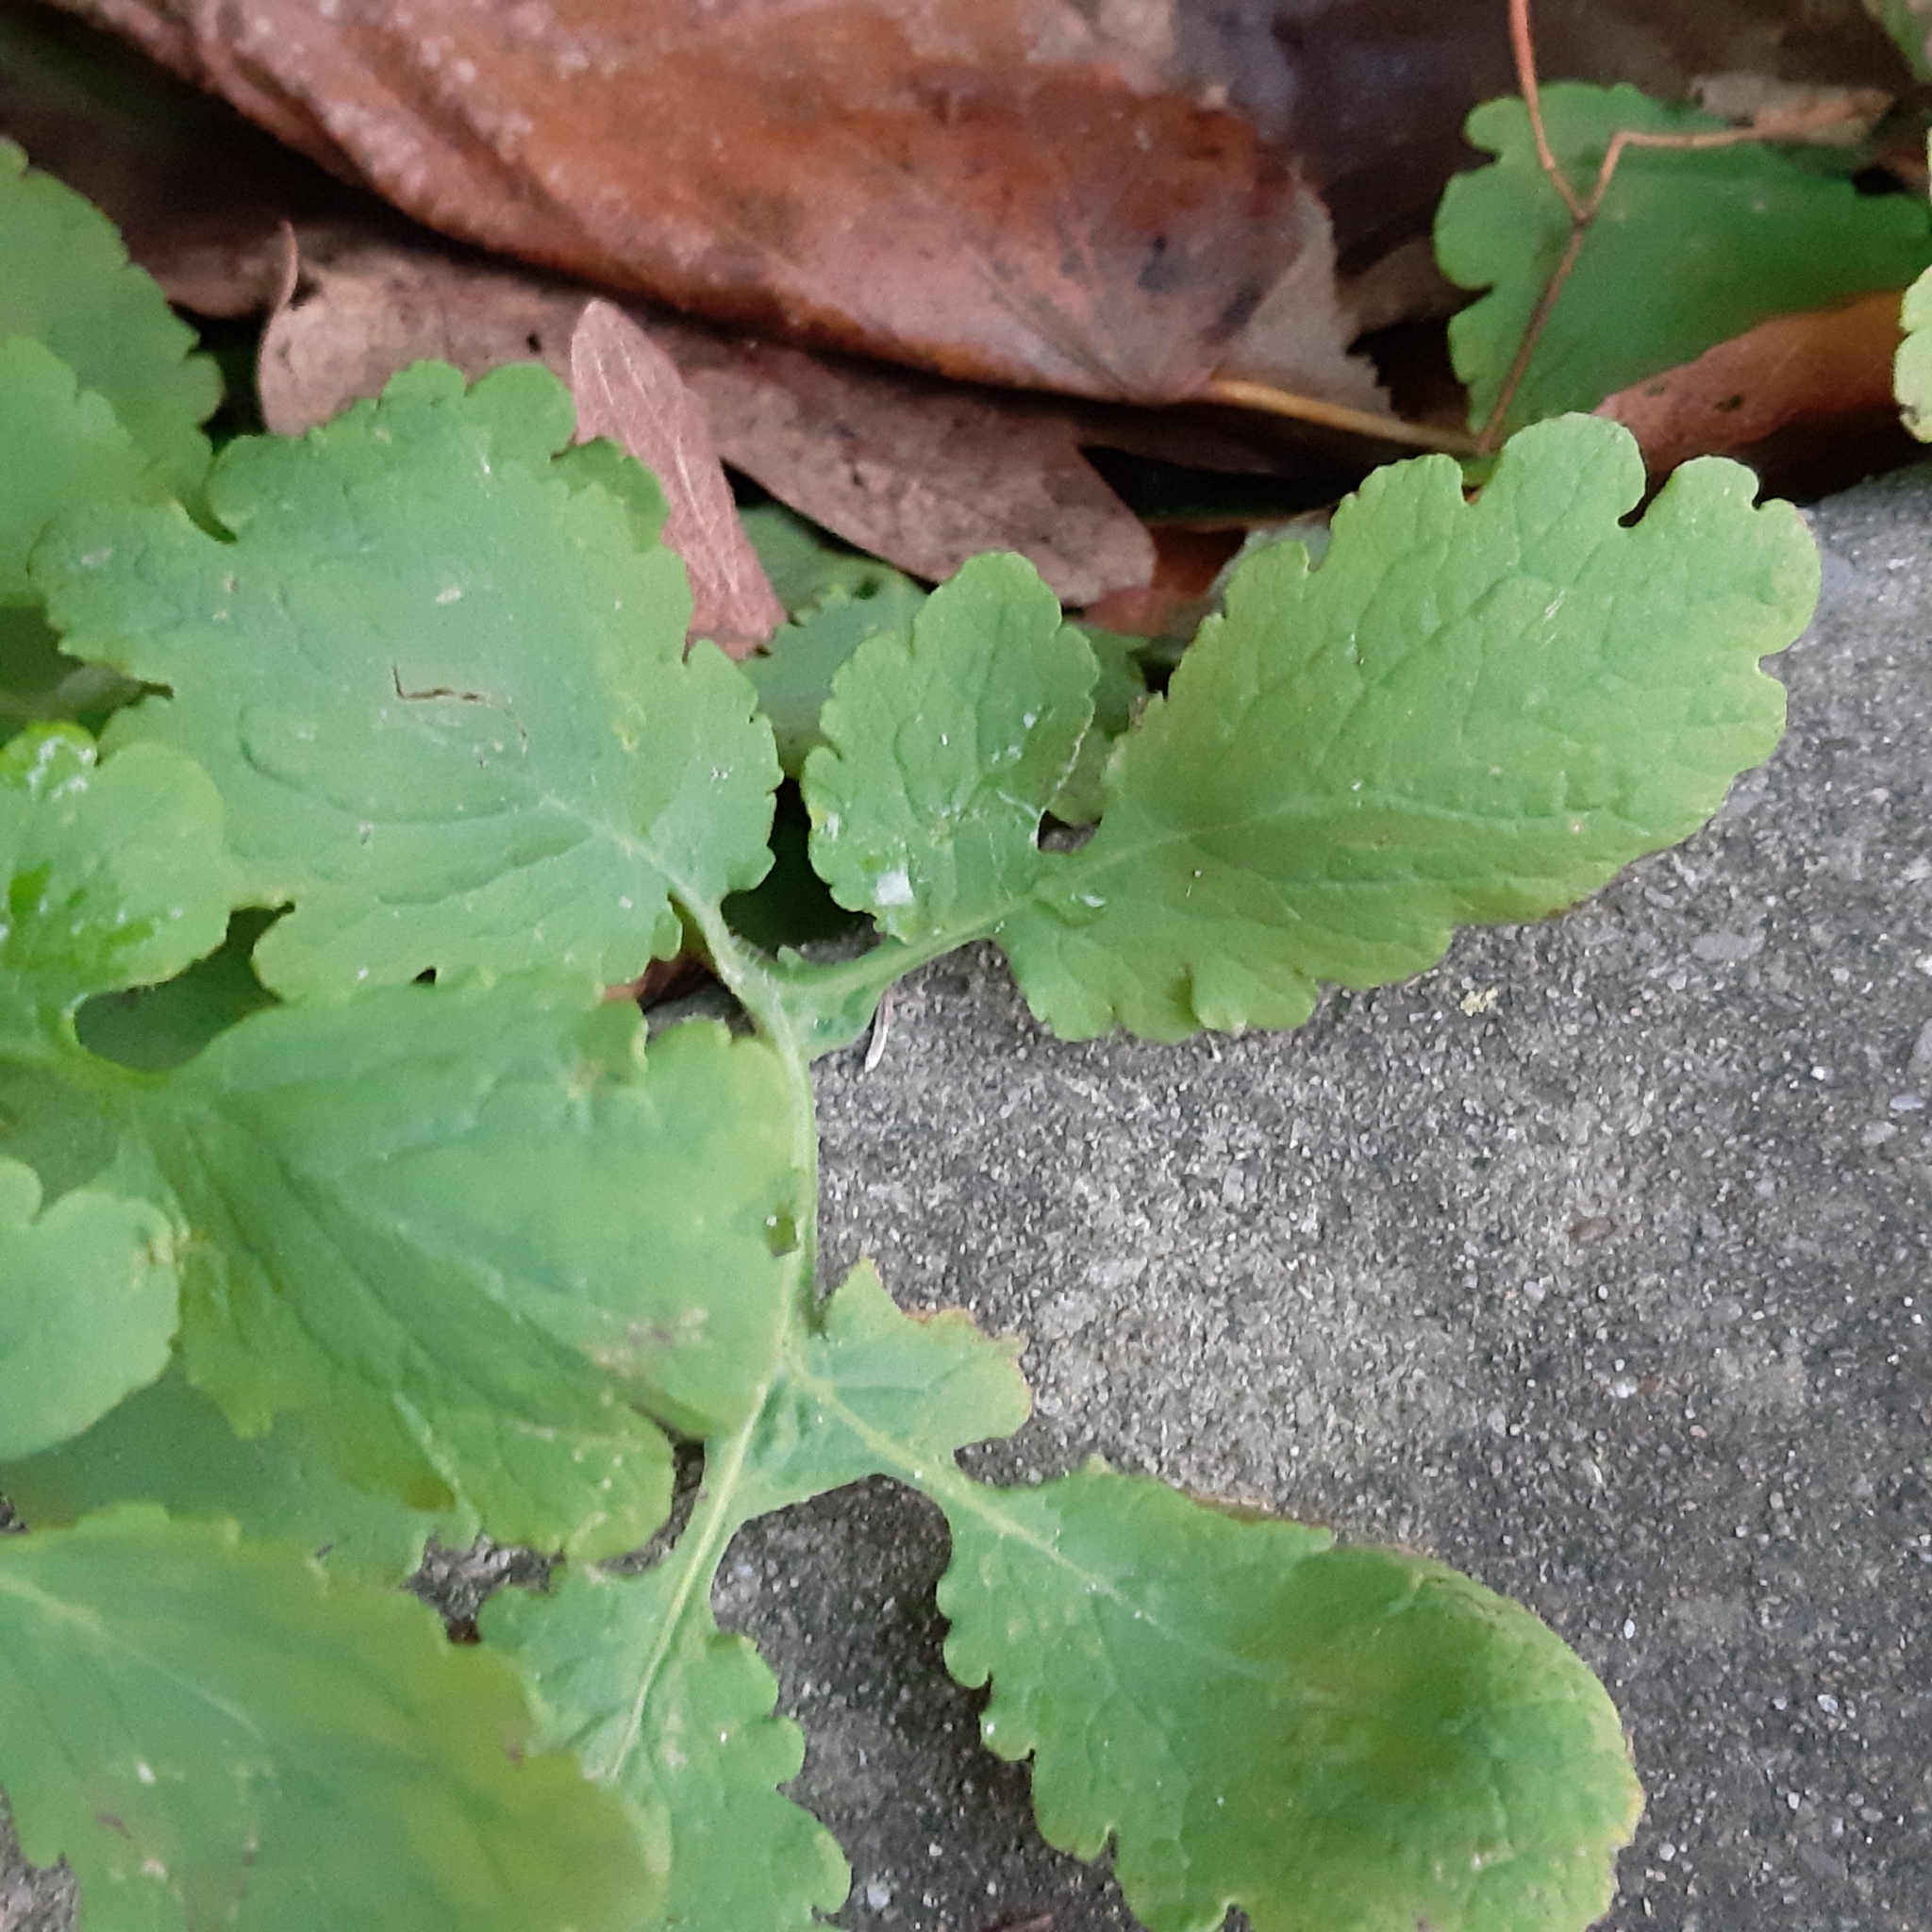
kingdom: Plantae
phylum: Tracheophyta
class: Magnoliopsida
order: Ranunculales
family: Papaveraceae
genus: Chelidonium
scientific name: Chelidonium majus
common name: Greater celandine
